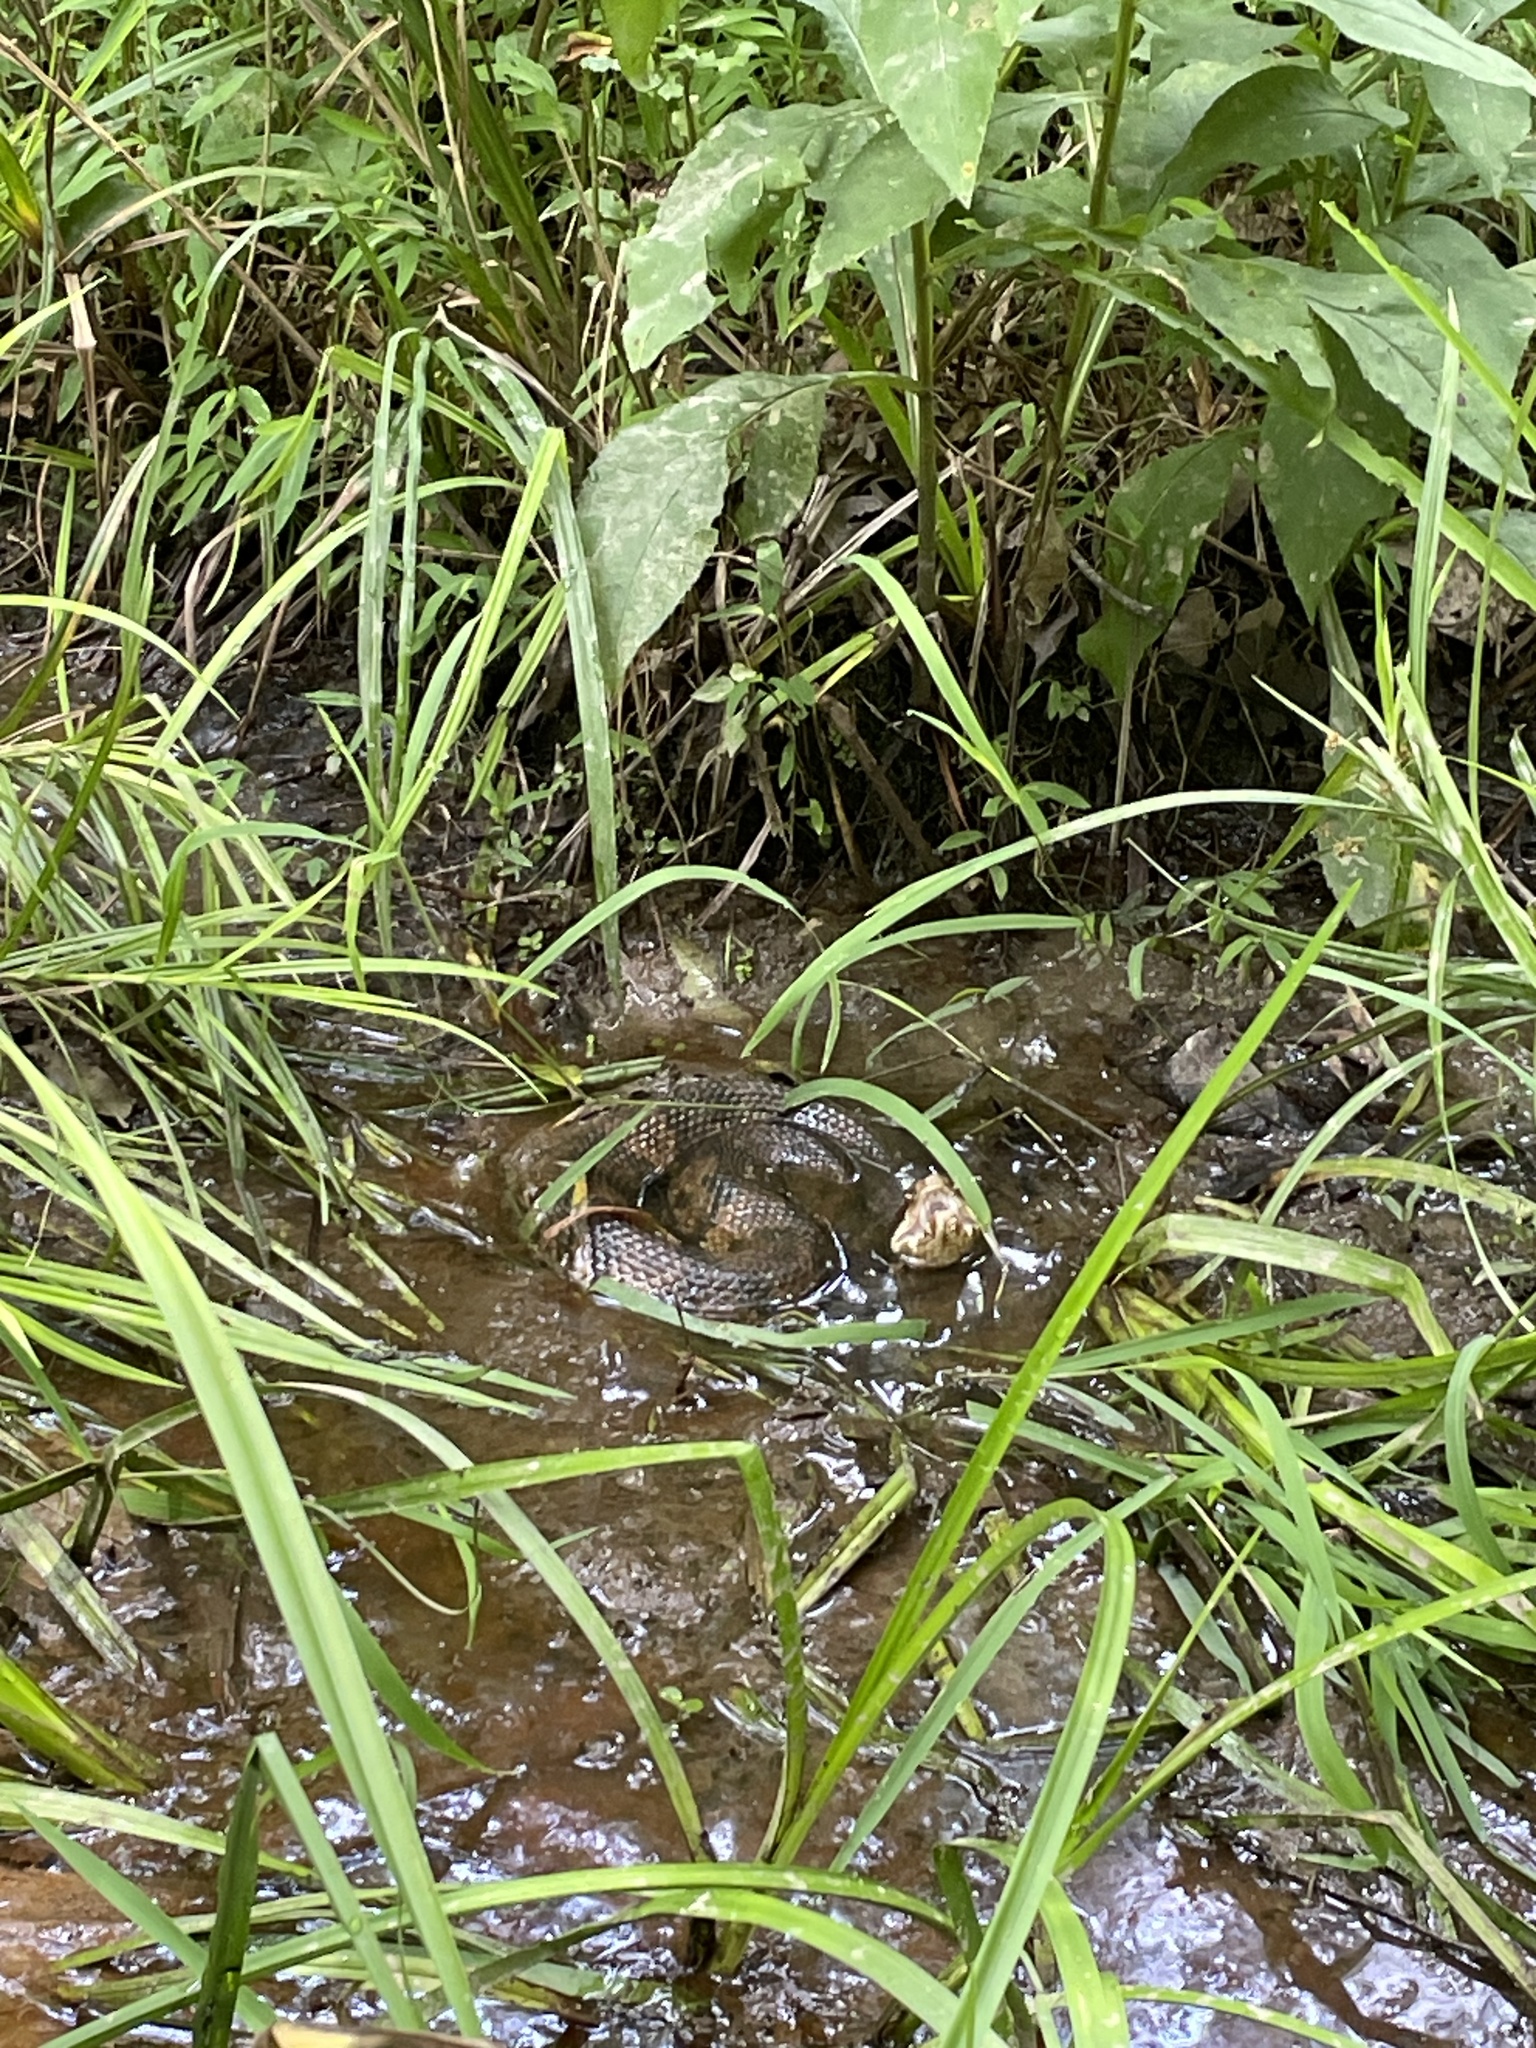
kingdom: Animalia
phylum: Chordata
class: Squamata
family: Viperidae
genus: Agkistrodon
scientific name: Agkistrodon piscivorus
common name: Cottonmouth
